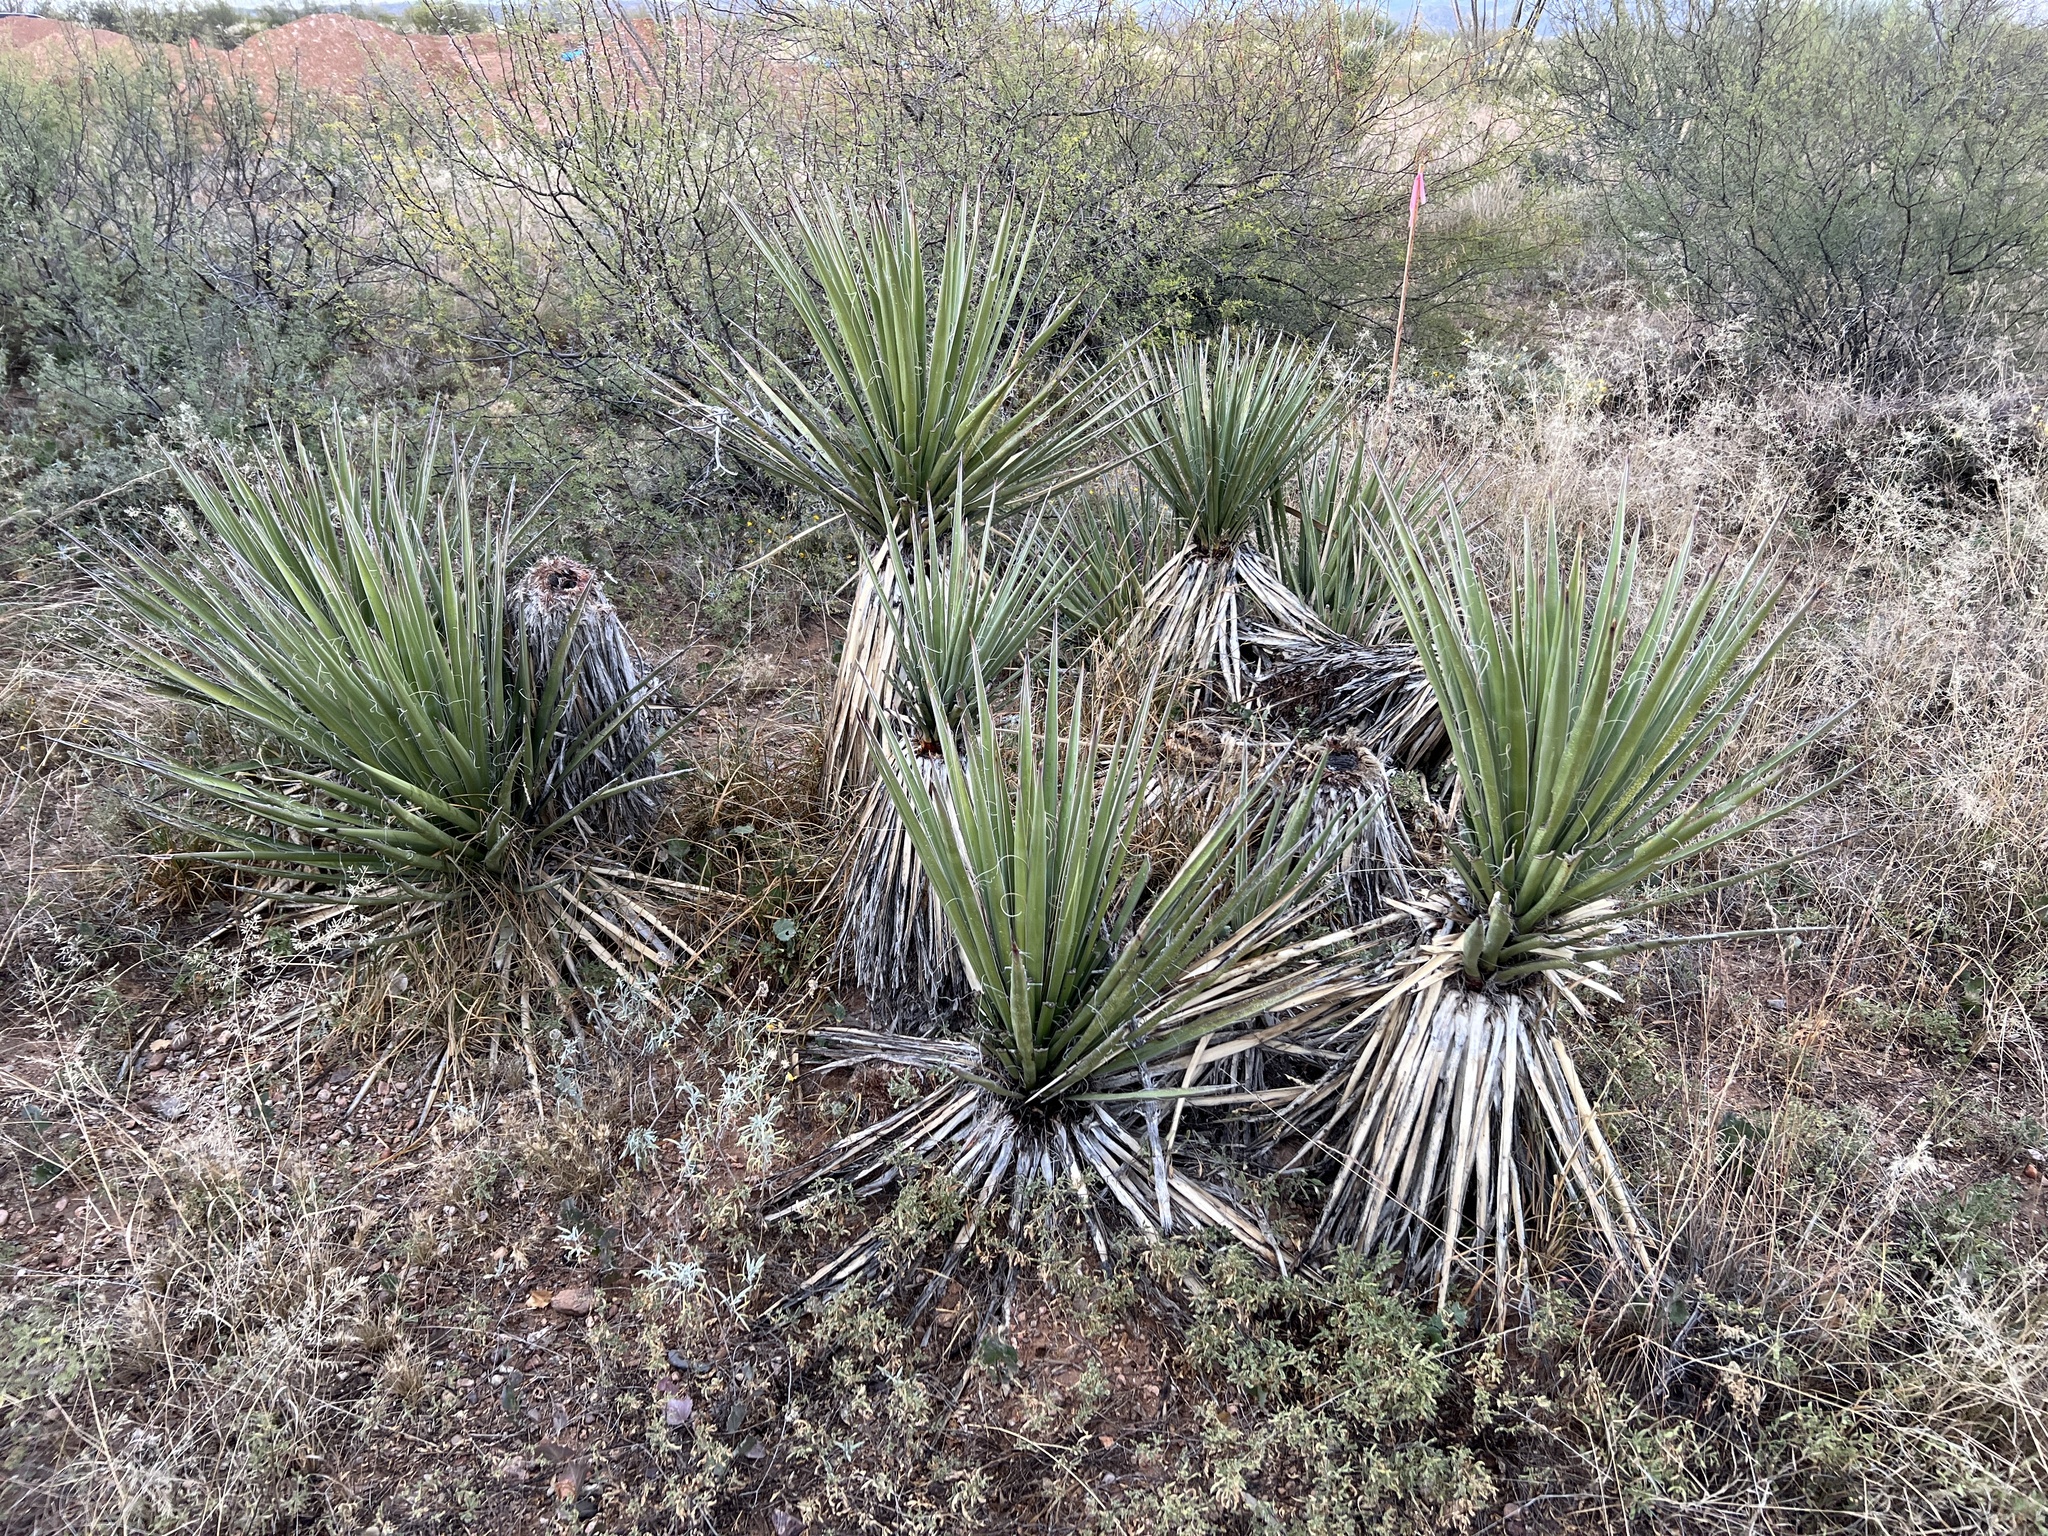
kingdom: Plantae
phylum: Tracheophyta
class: Liliopsida
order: Asparagales
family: Asparagaceae
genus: Yucca
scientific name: Yucca baccata
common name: Banana yucca
